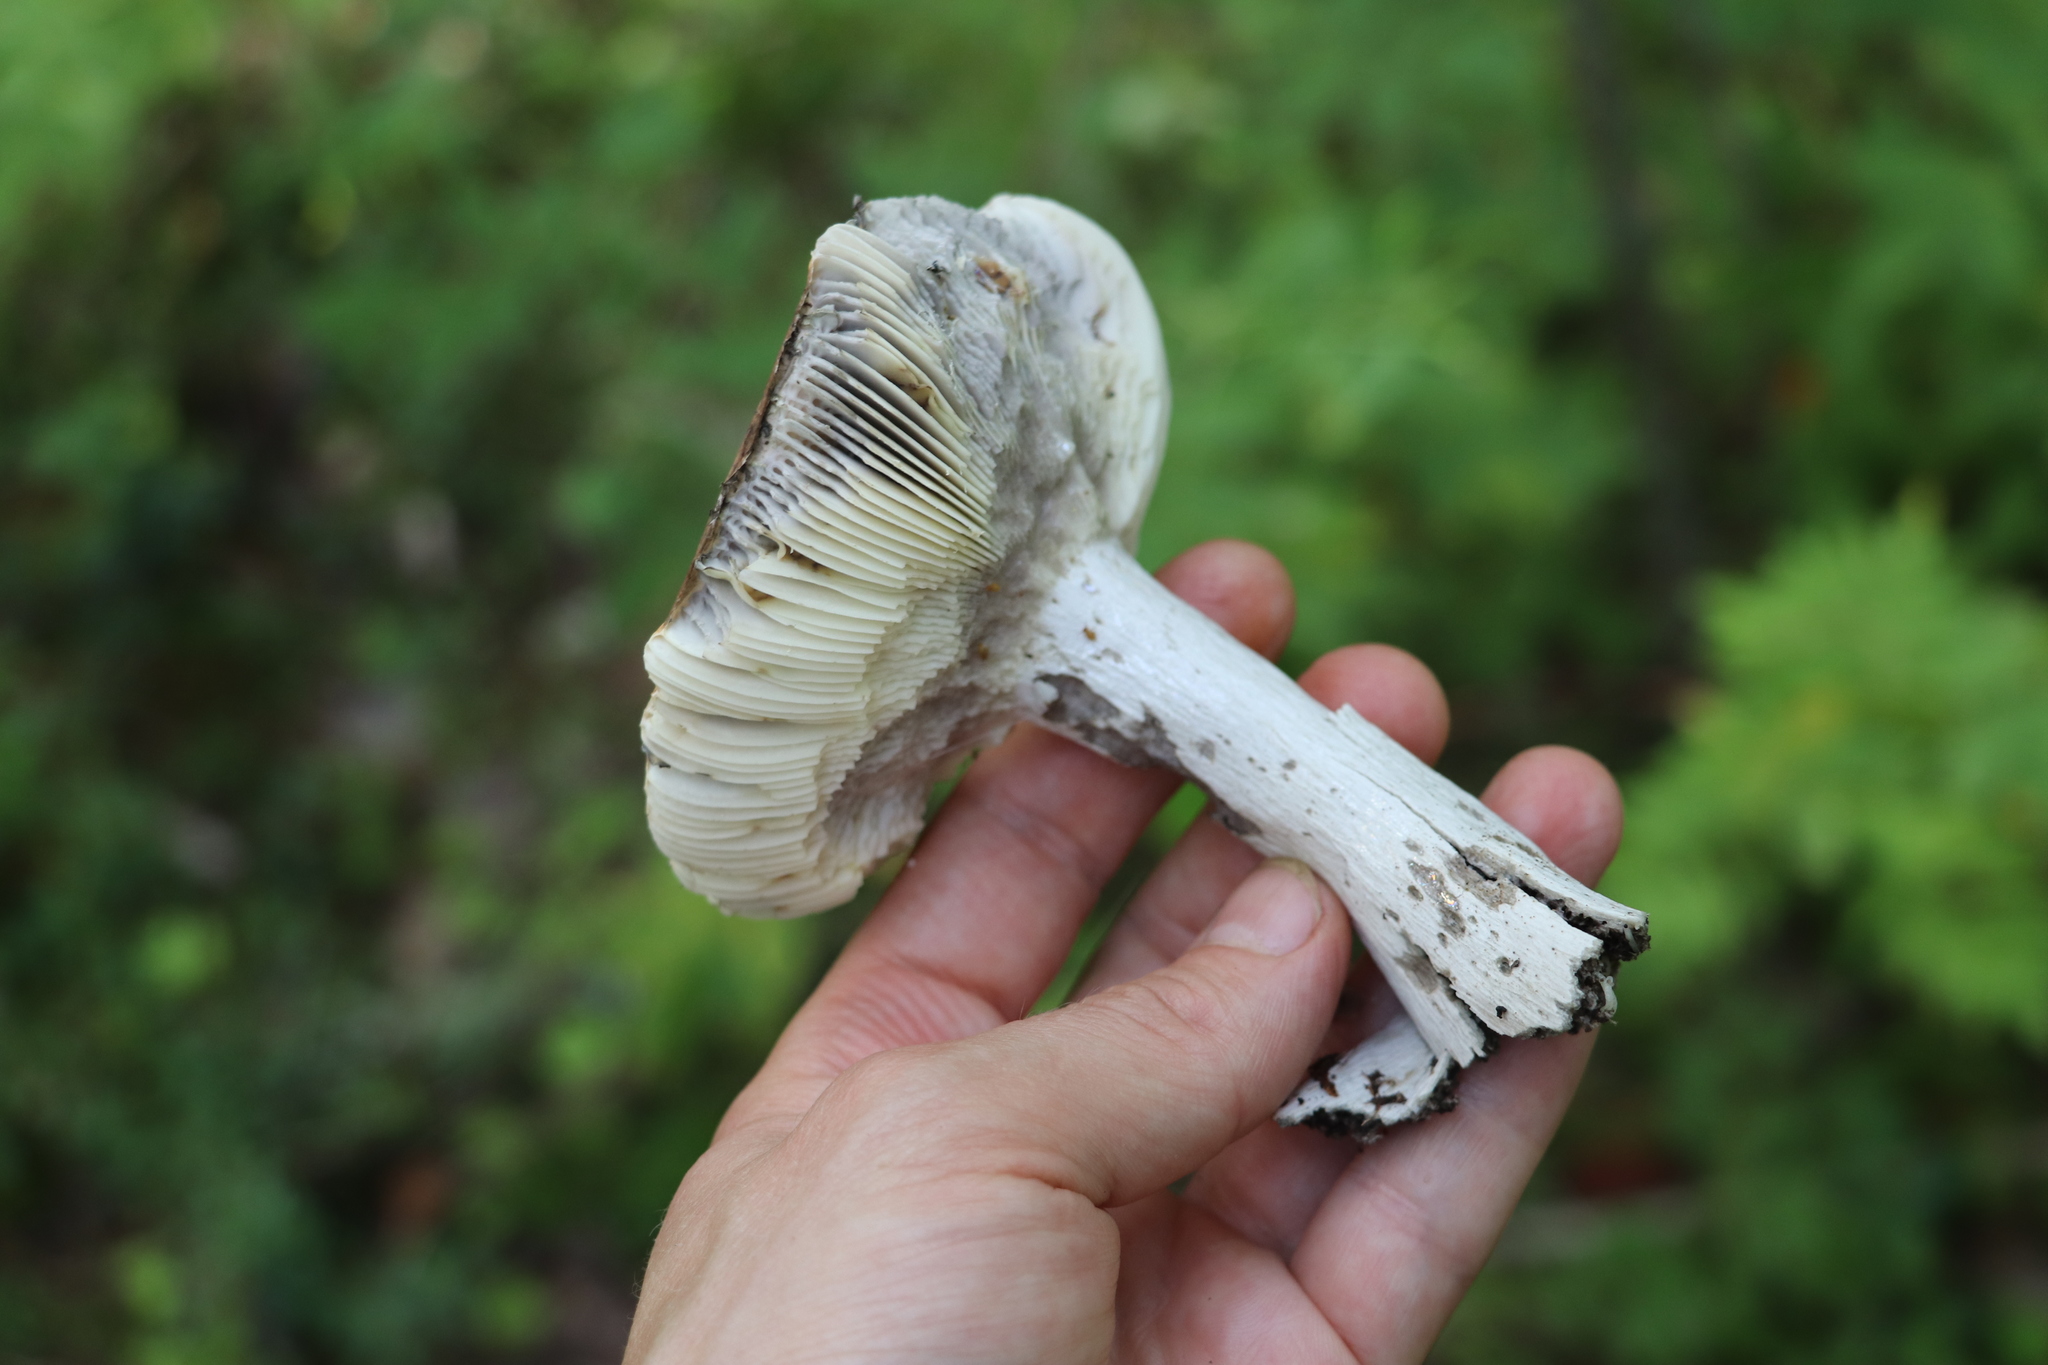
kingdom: Fungi
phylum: Basidiomycota
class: Agaricomycetes
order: Russulales
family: Russulaceae
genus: Russula
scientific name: Russula decolorans
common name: Copper brittlegill
